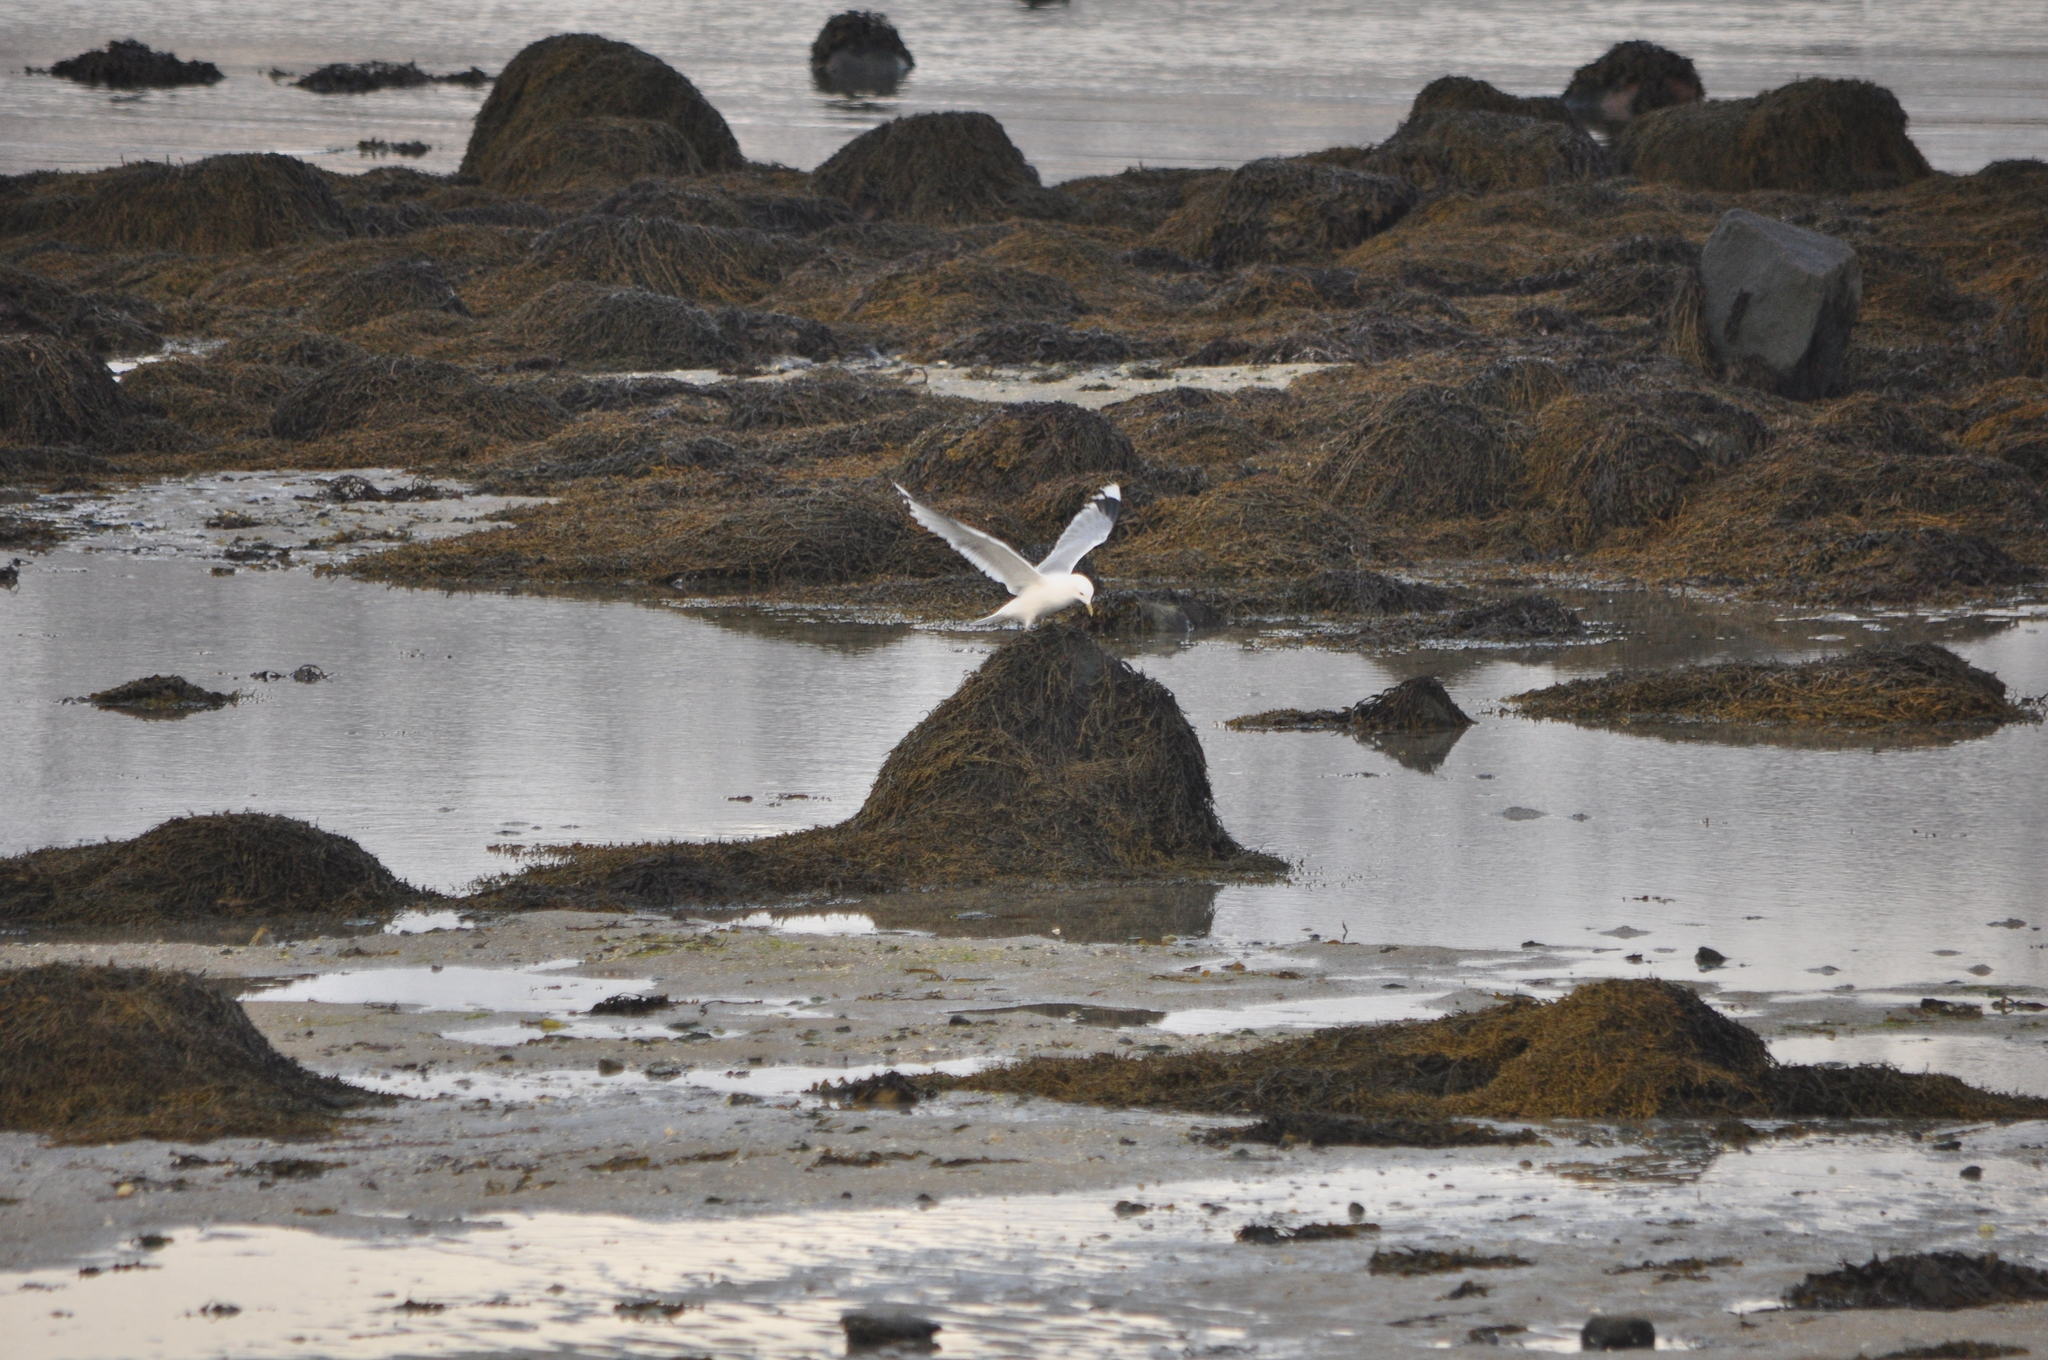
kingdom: Animalia
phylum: Chordata
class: Aves
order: Charadriiformes
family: Laridae
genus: Larus
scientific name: Larus canus
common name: Mew gull
